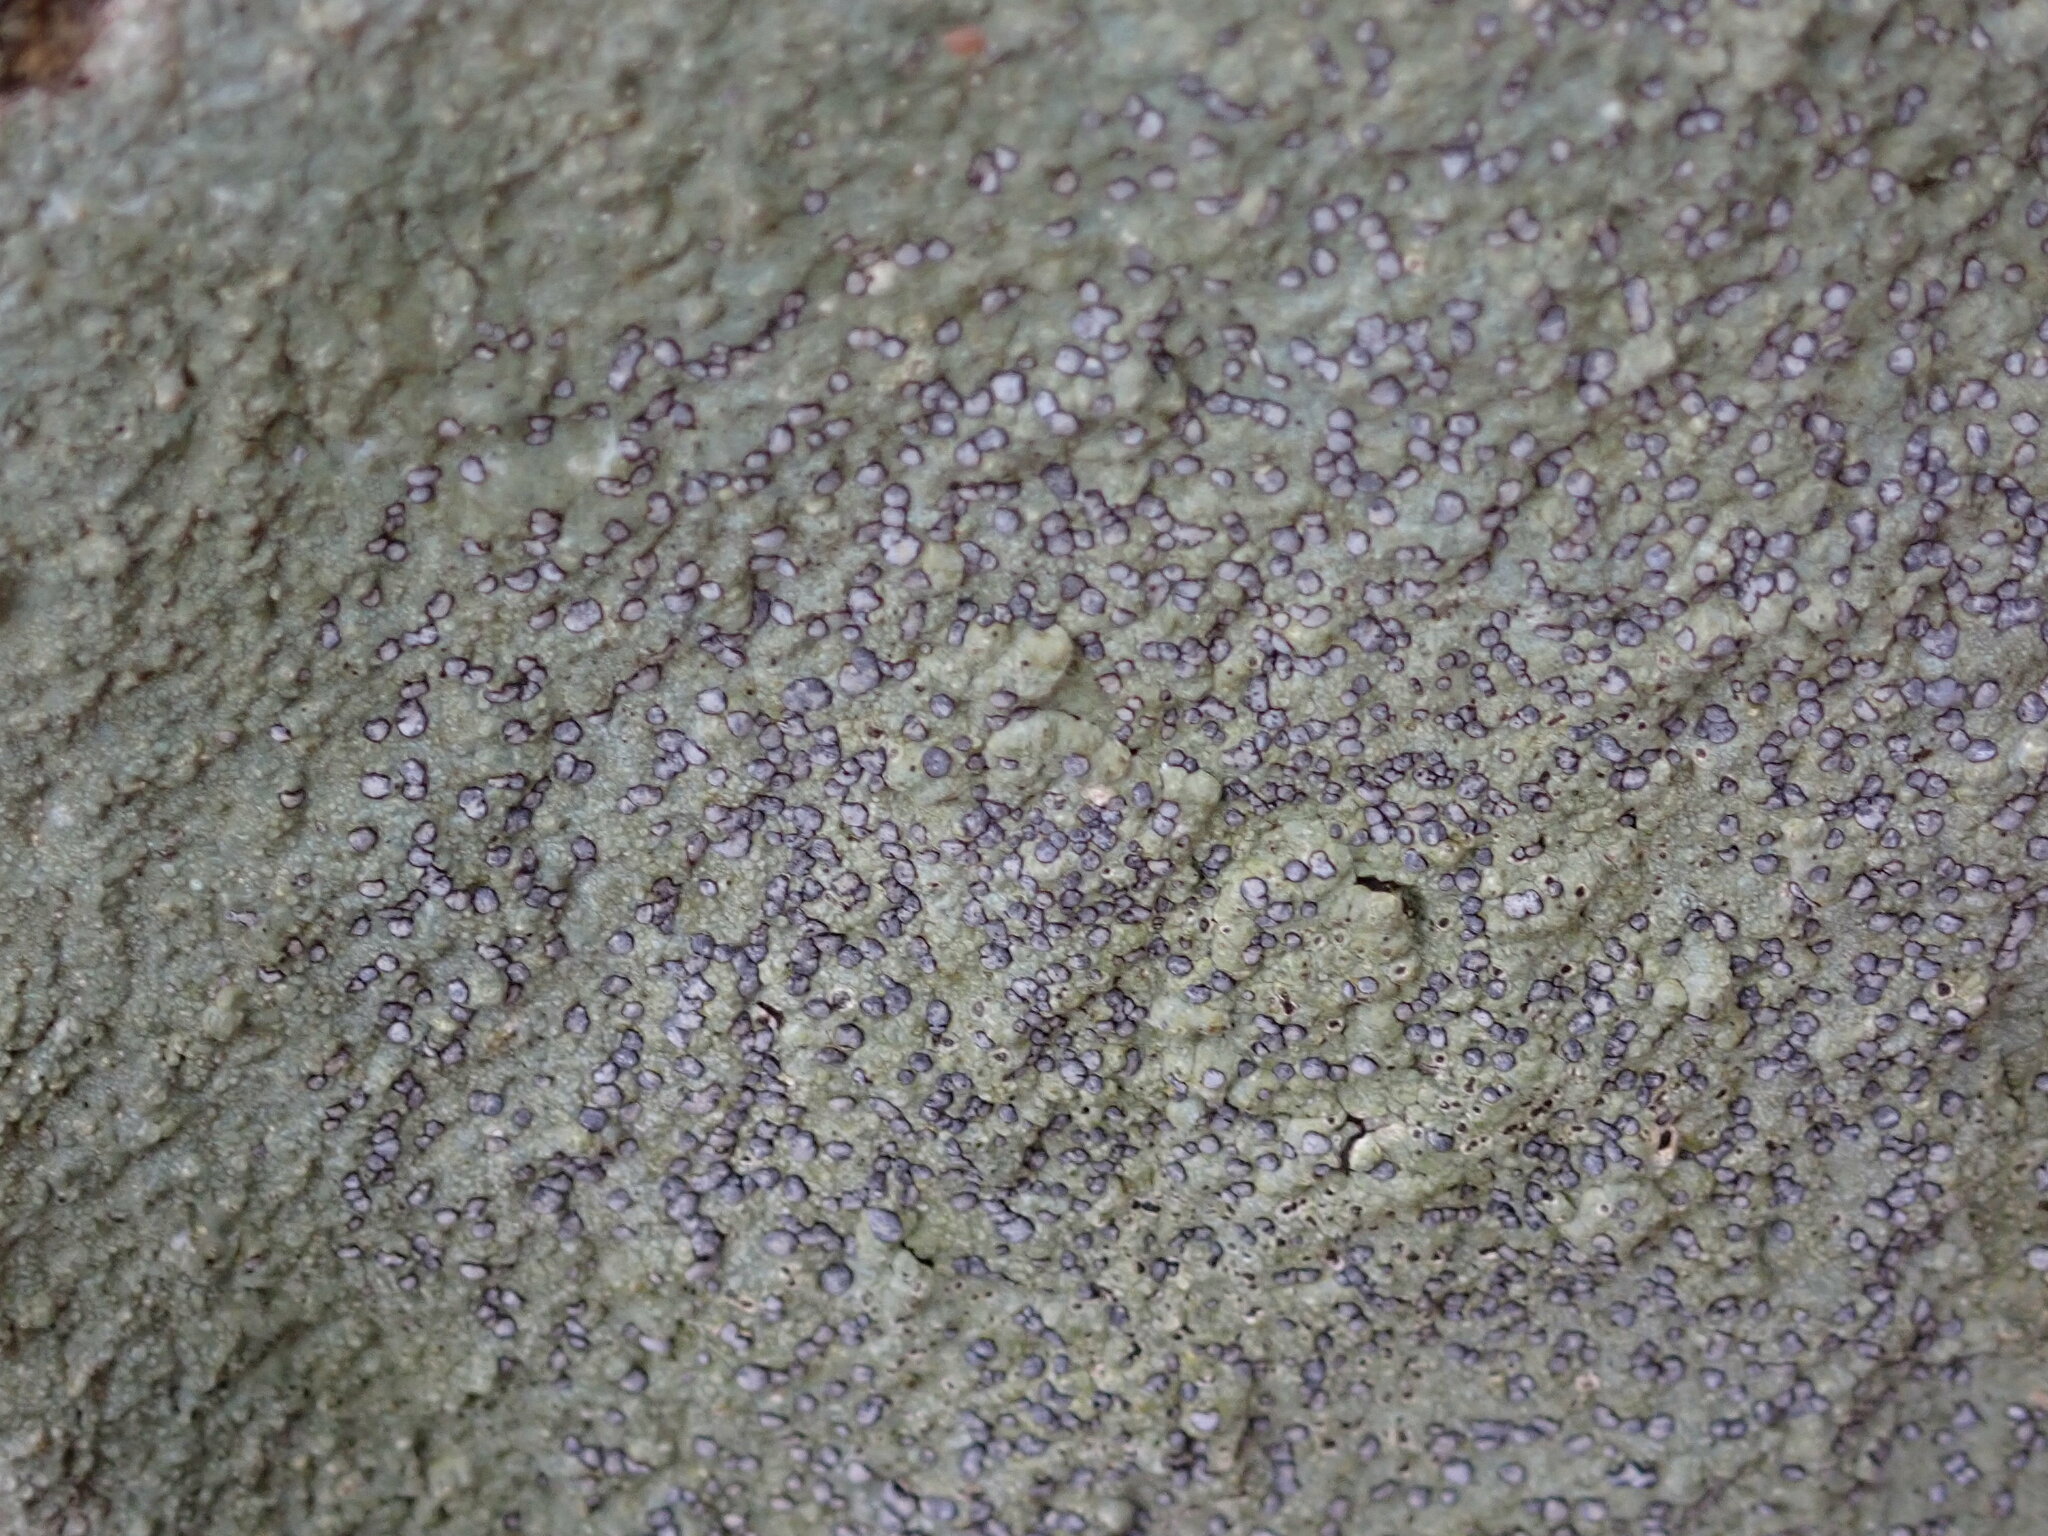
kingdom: Fungi
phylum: Ascomycota
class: Lecanoromycetes
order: Lecideales
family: Lecideaceae
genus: Porpidia
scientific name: Porpidia albocaerulescens
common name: Smokey-eyed boulder lichen
